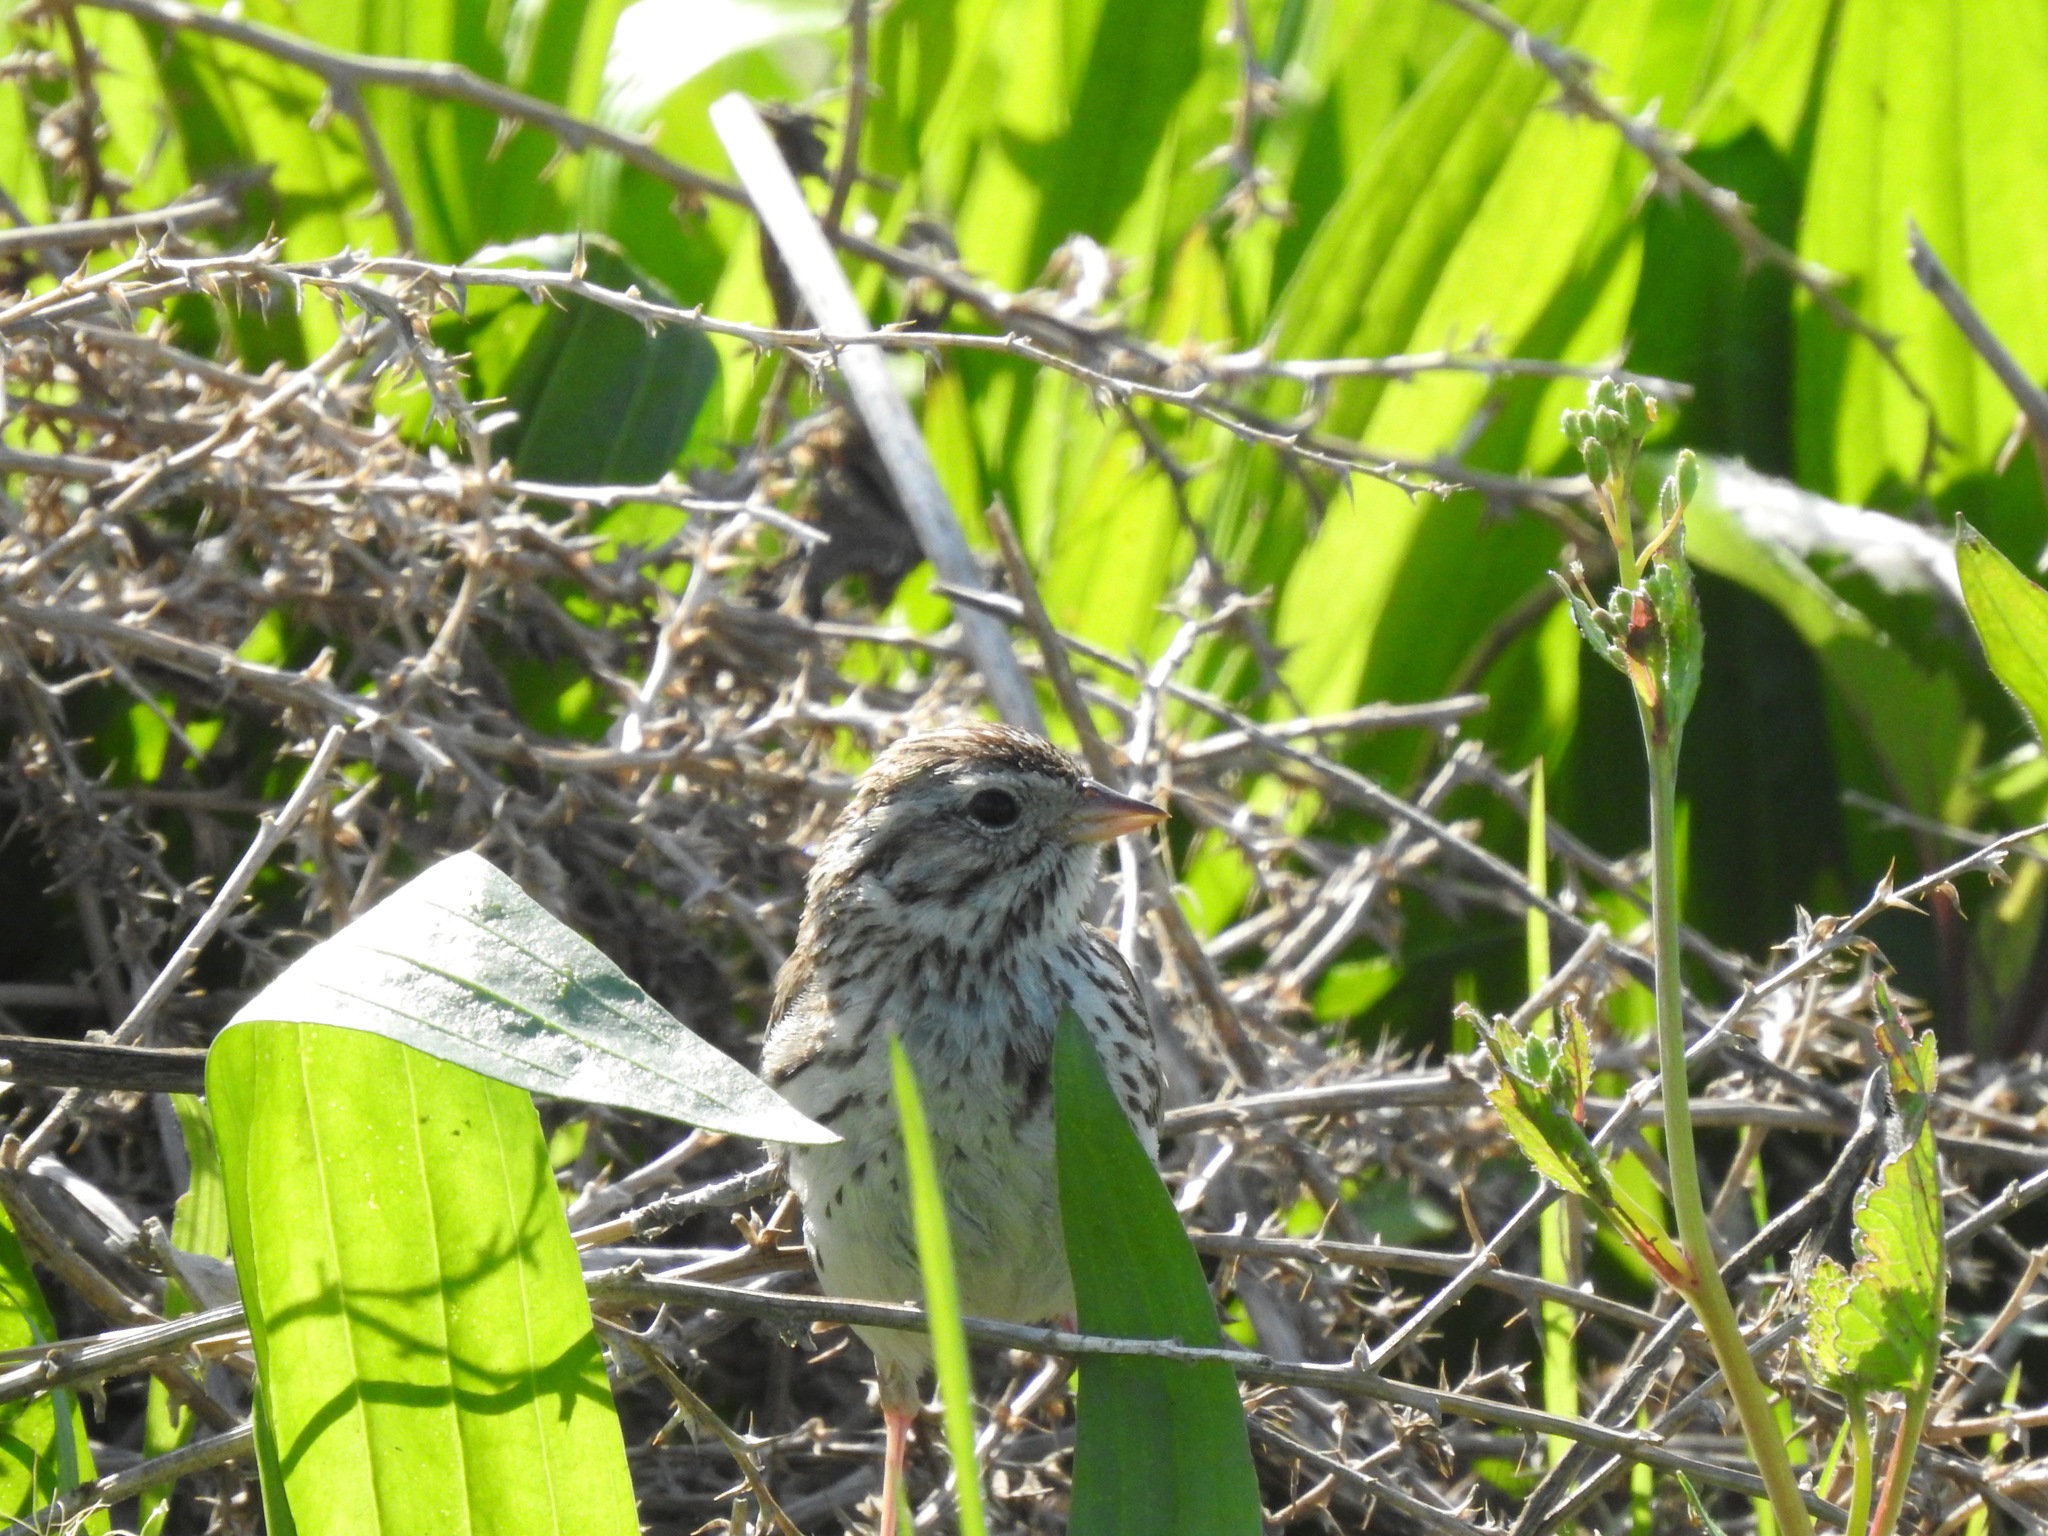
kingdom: Animalia
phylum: Chordata
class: Aves
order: Passeriformes
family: Passerellidae
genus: Passerculus
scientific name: Passerculus sandwichensis
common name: Savannah sparrow
